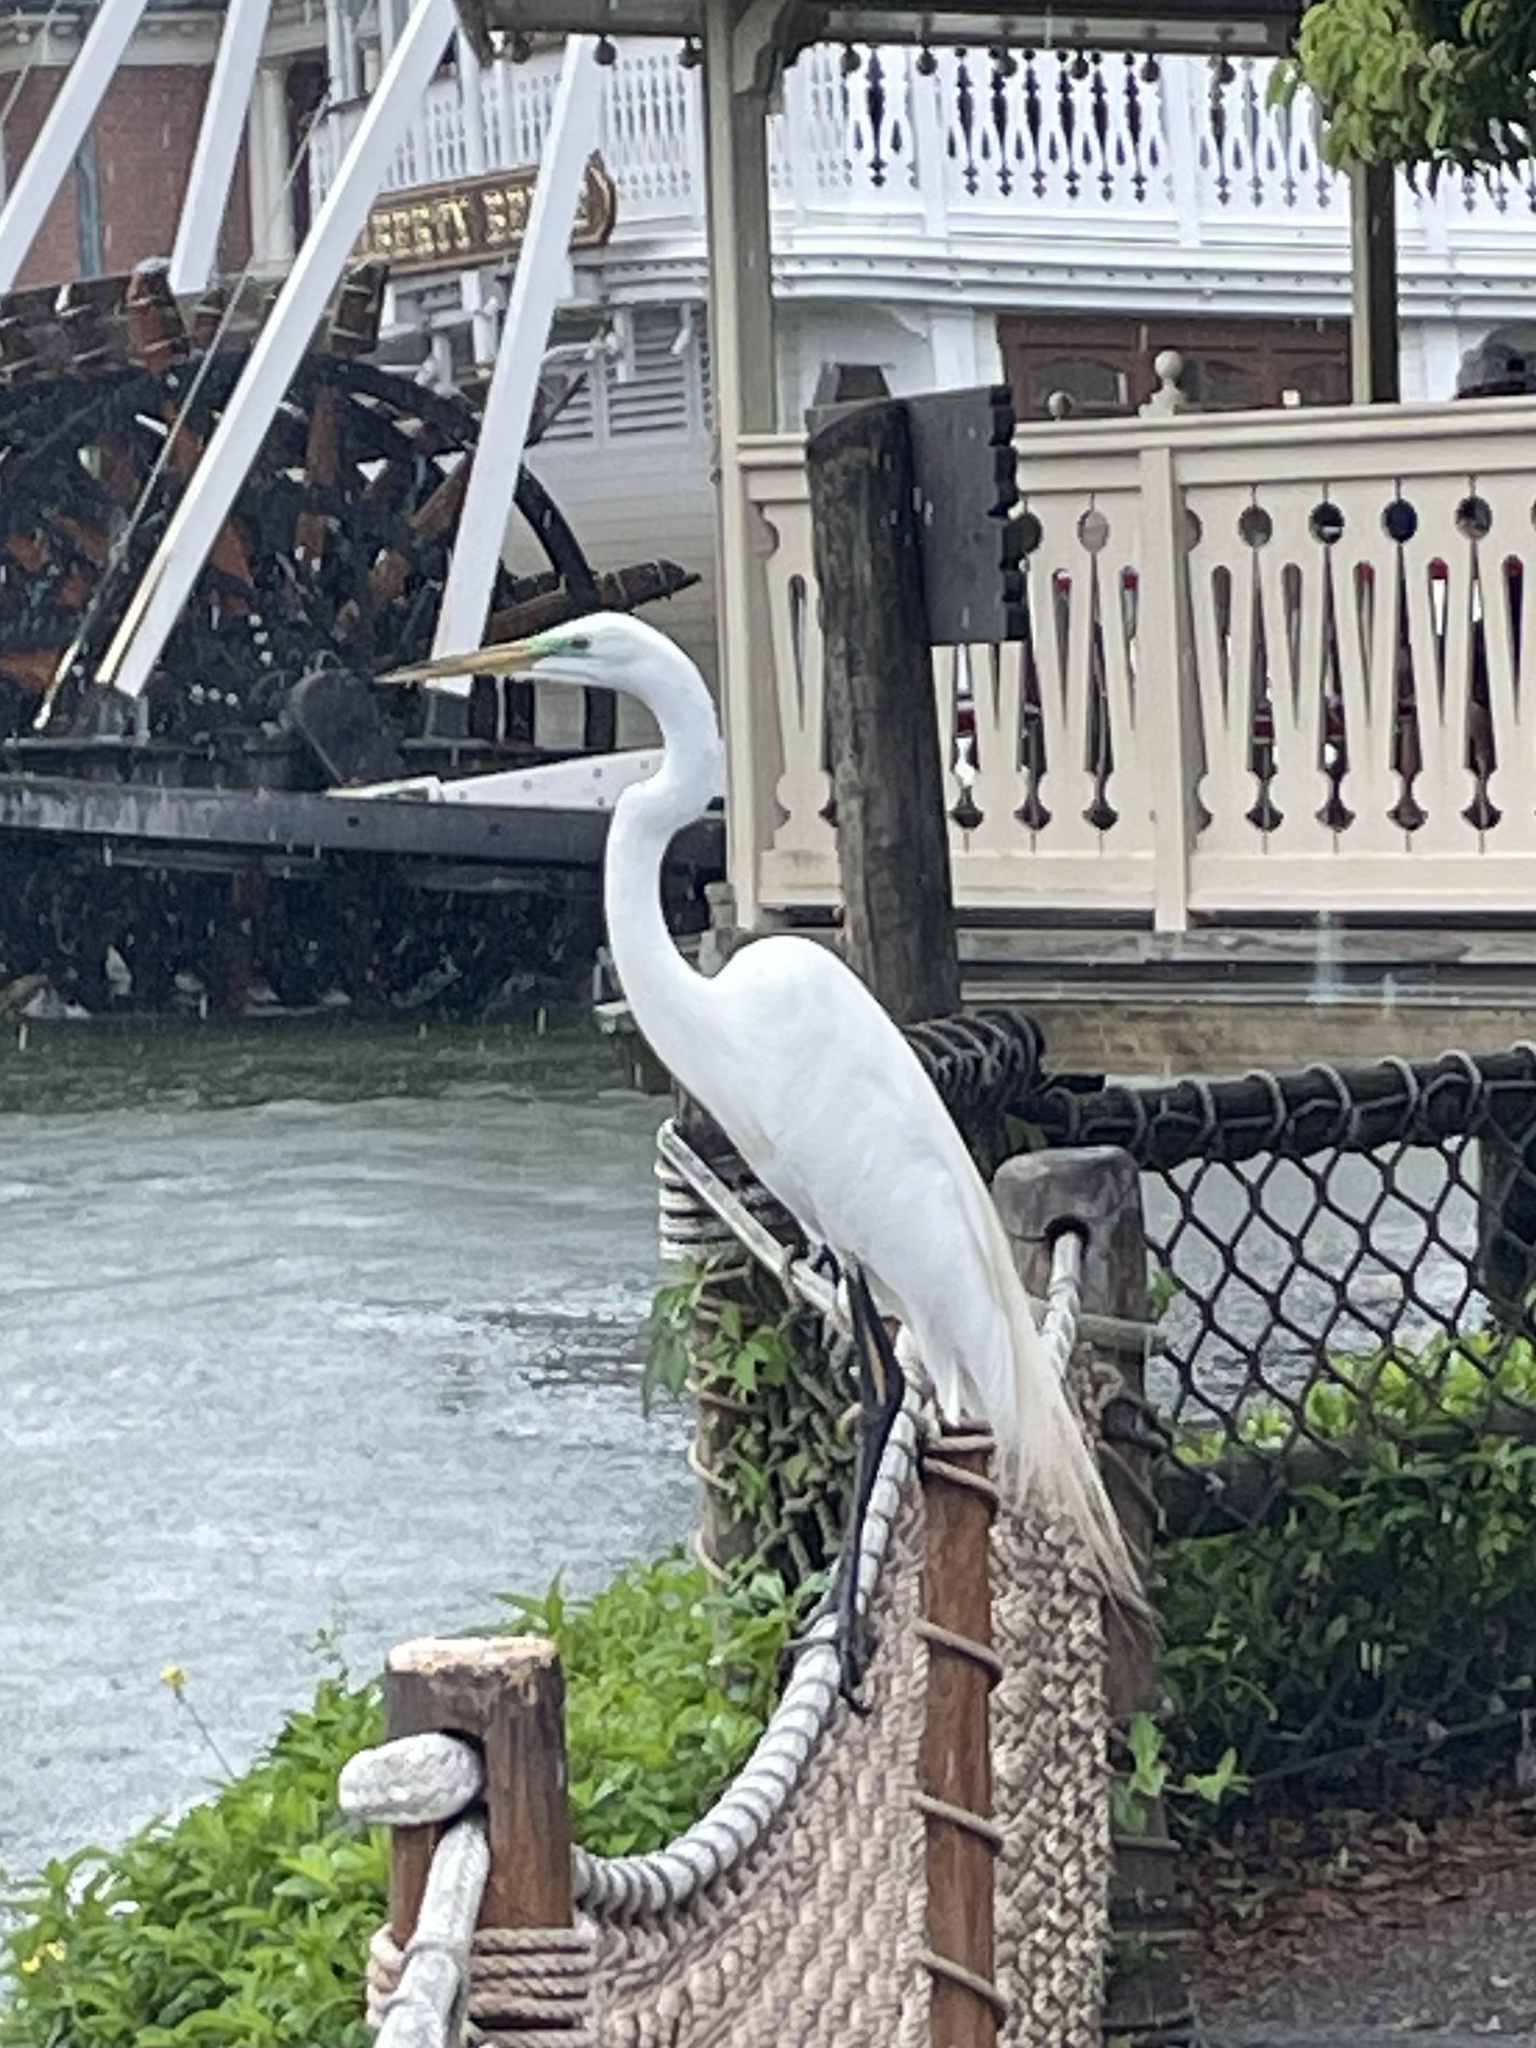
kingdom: Animalia
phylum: Chordata
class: Aves
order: Pelecaniformes
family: Ardeidae
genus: Ardea
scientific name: Ardea alba
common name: Great egret
